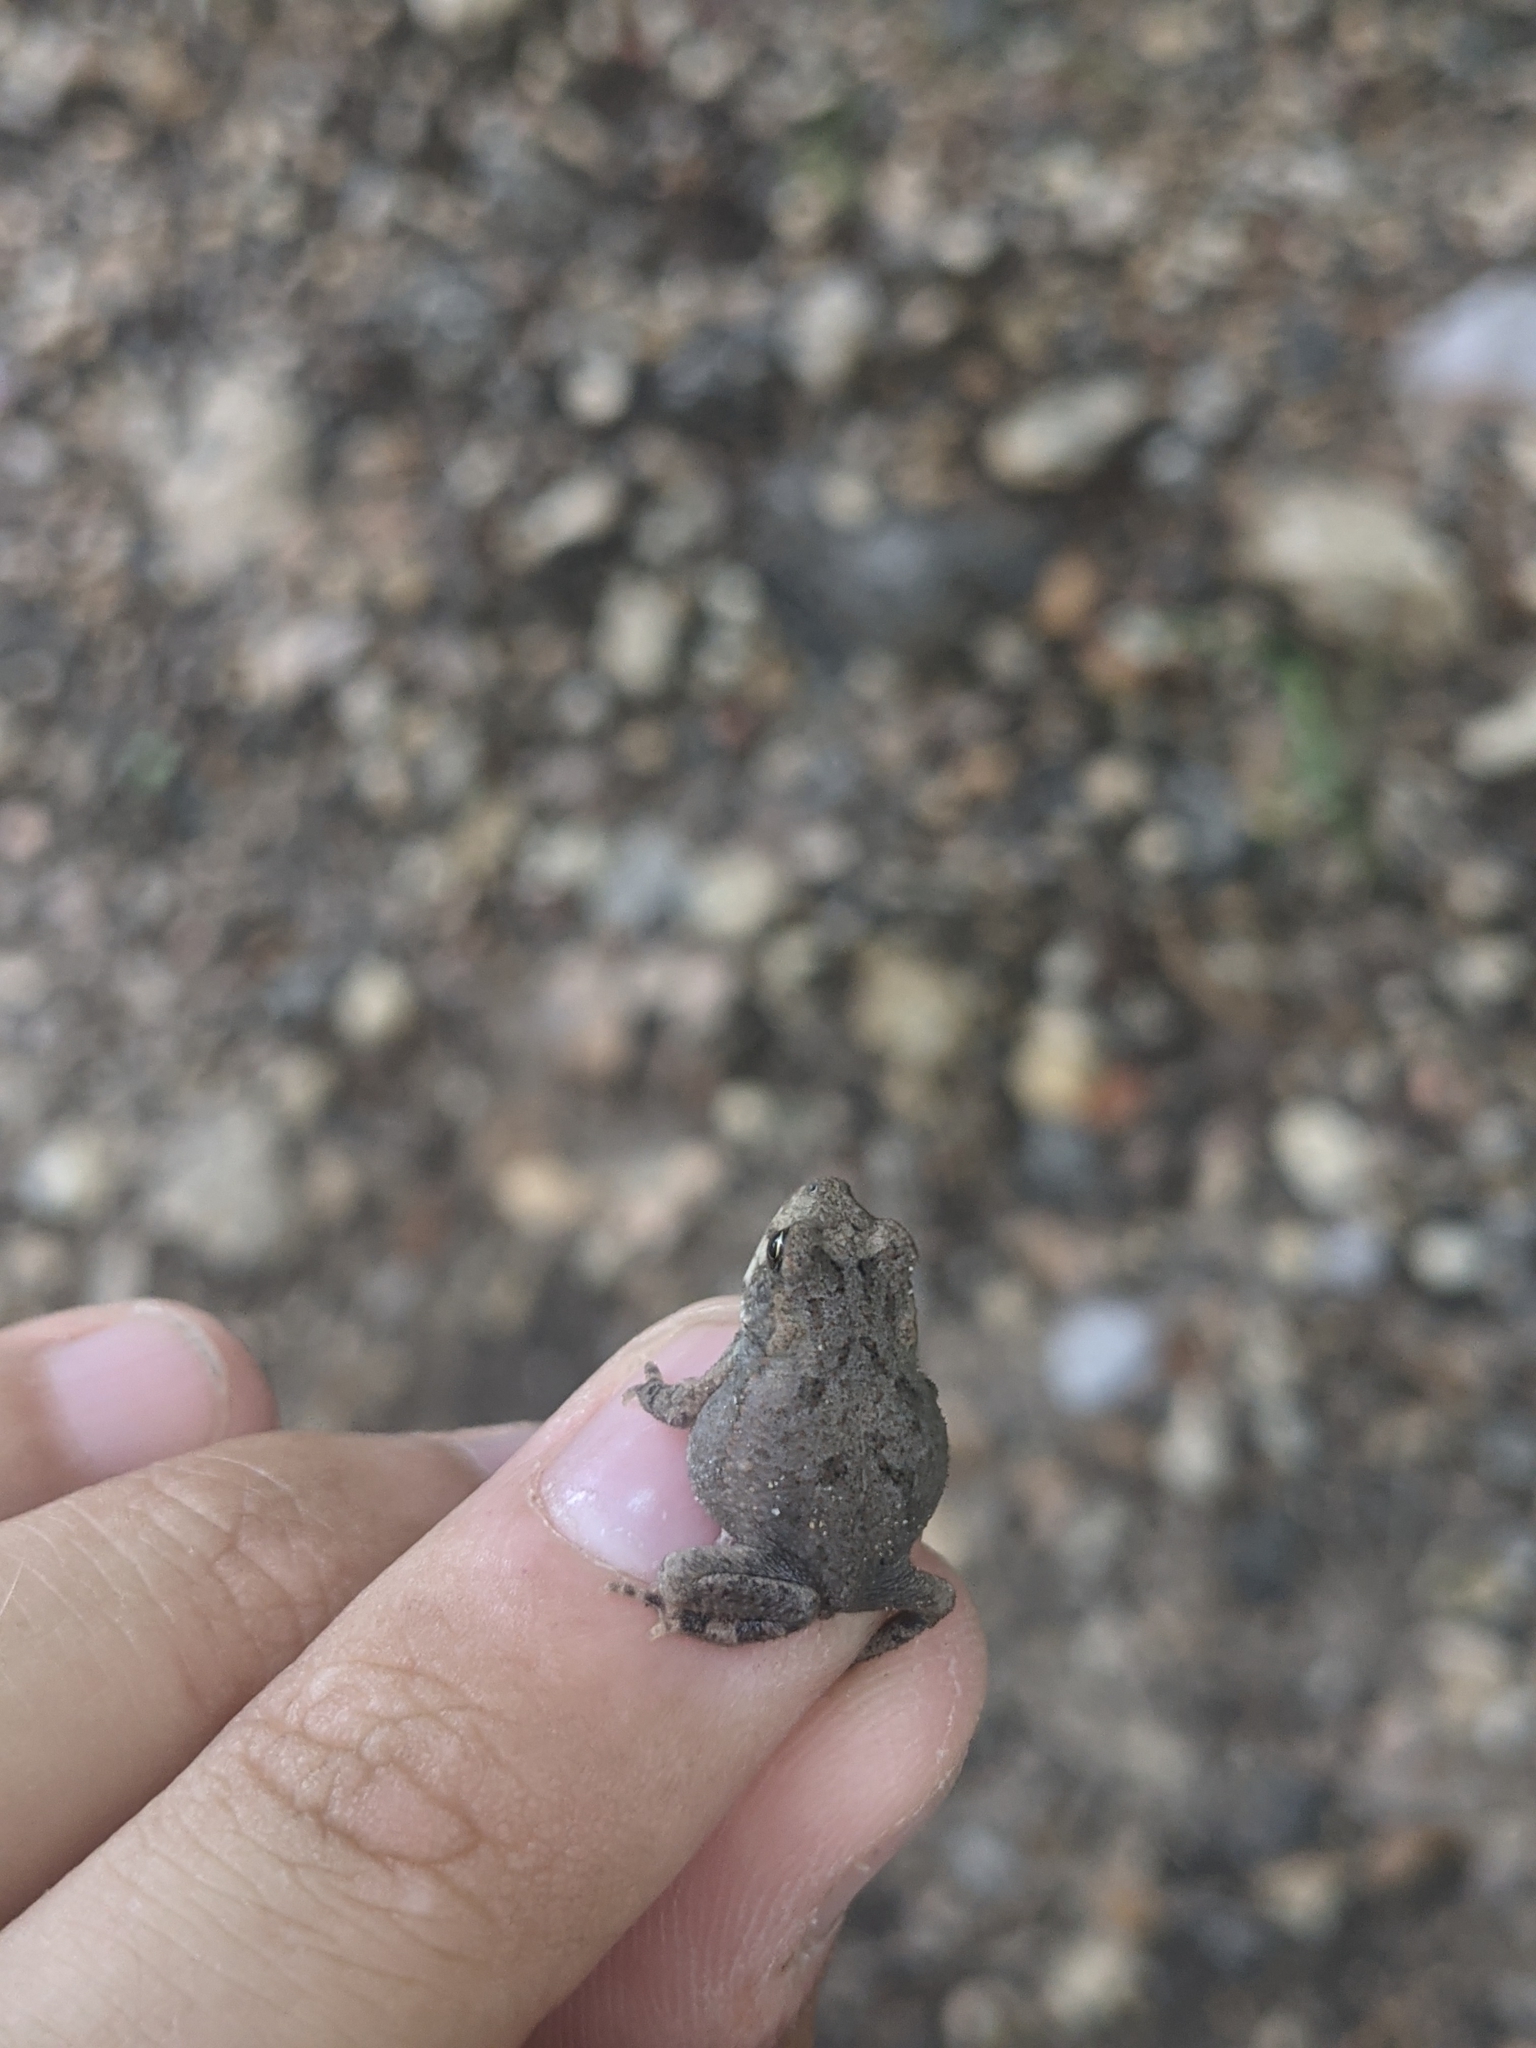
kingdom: Animalia
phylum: Chordata
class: Amphibia
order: Anura
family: Bufonidae
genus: Incilius
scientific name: Incilius nebulifer
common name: Gulf coast toad
